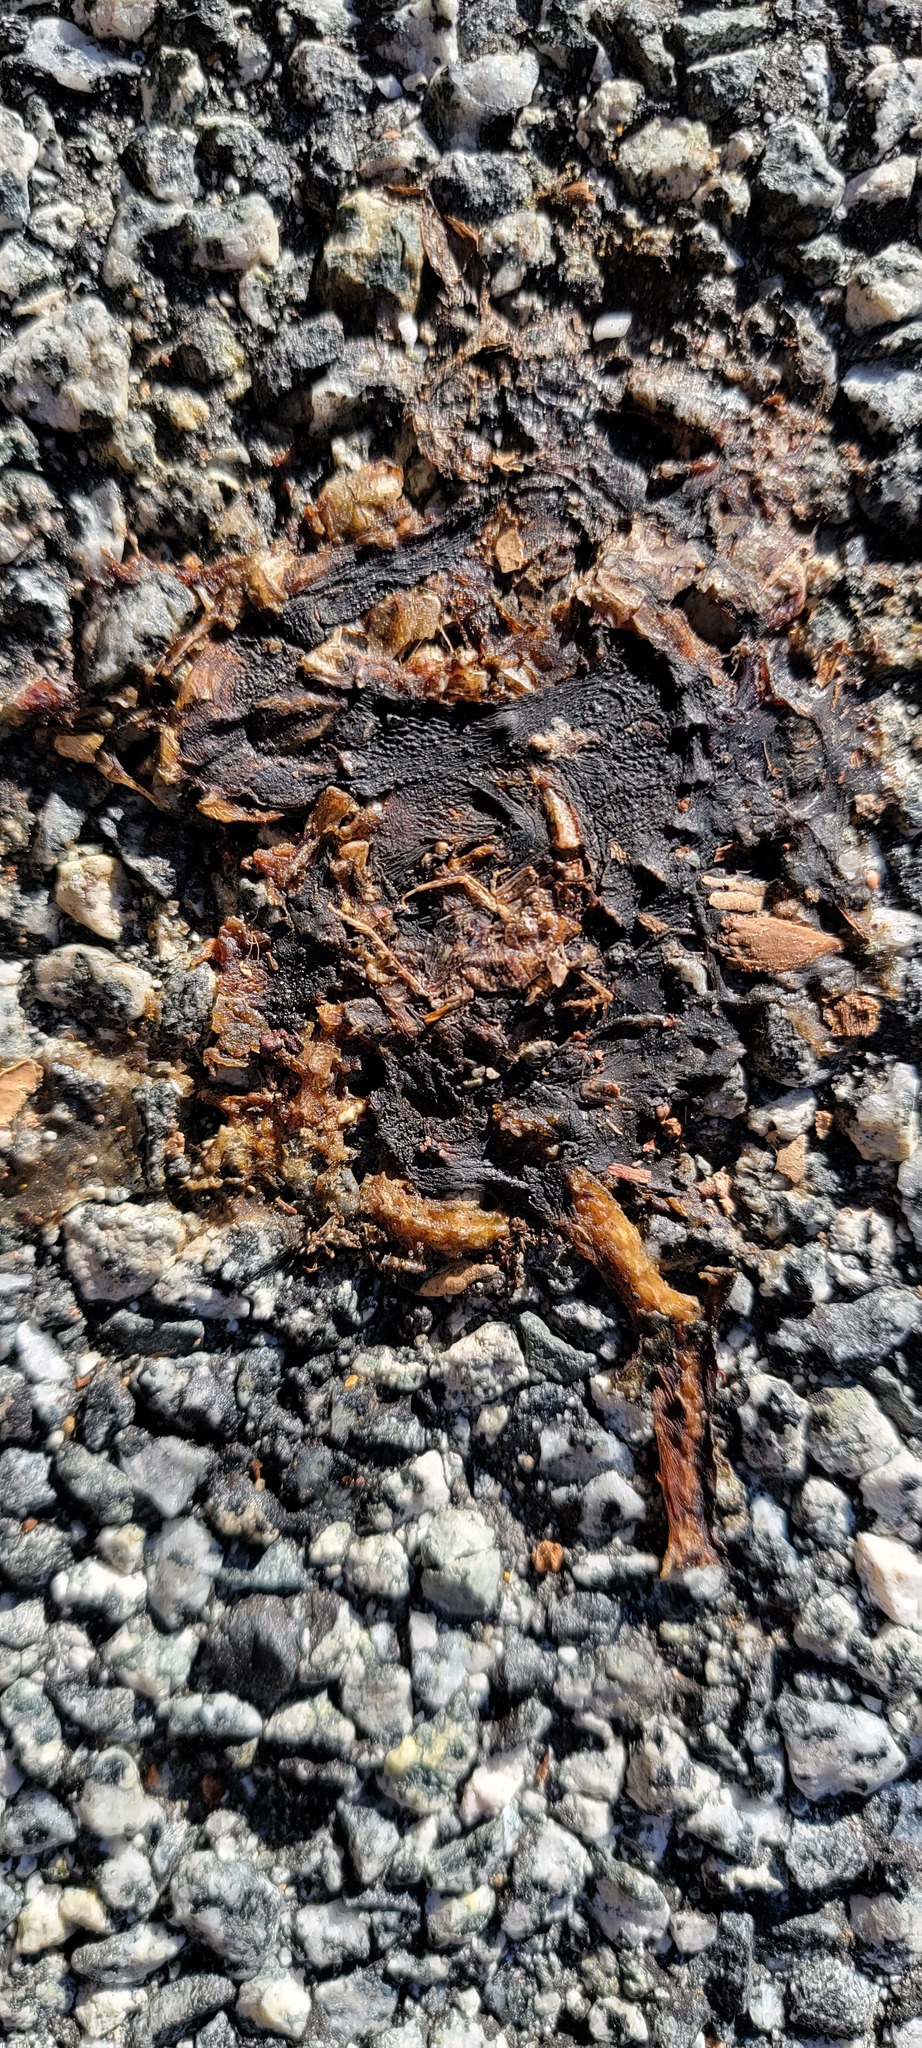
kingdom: Animalia
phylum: Chordata
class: Amphibia
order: Caudata
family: Salamandridae
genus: Taricha
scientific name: Taricha
